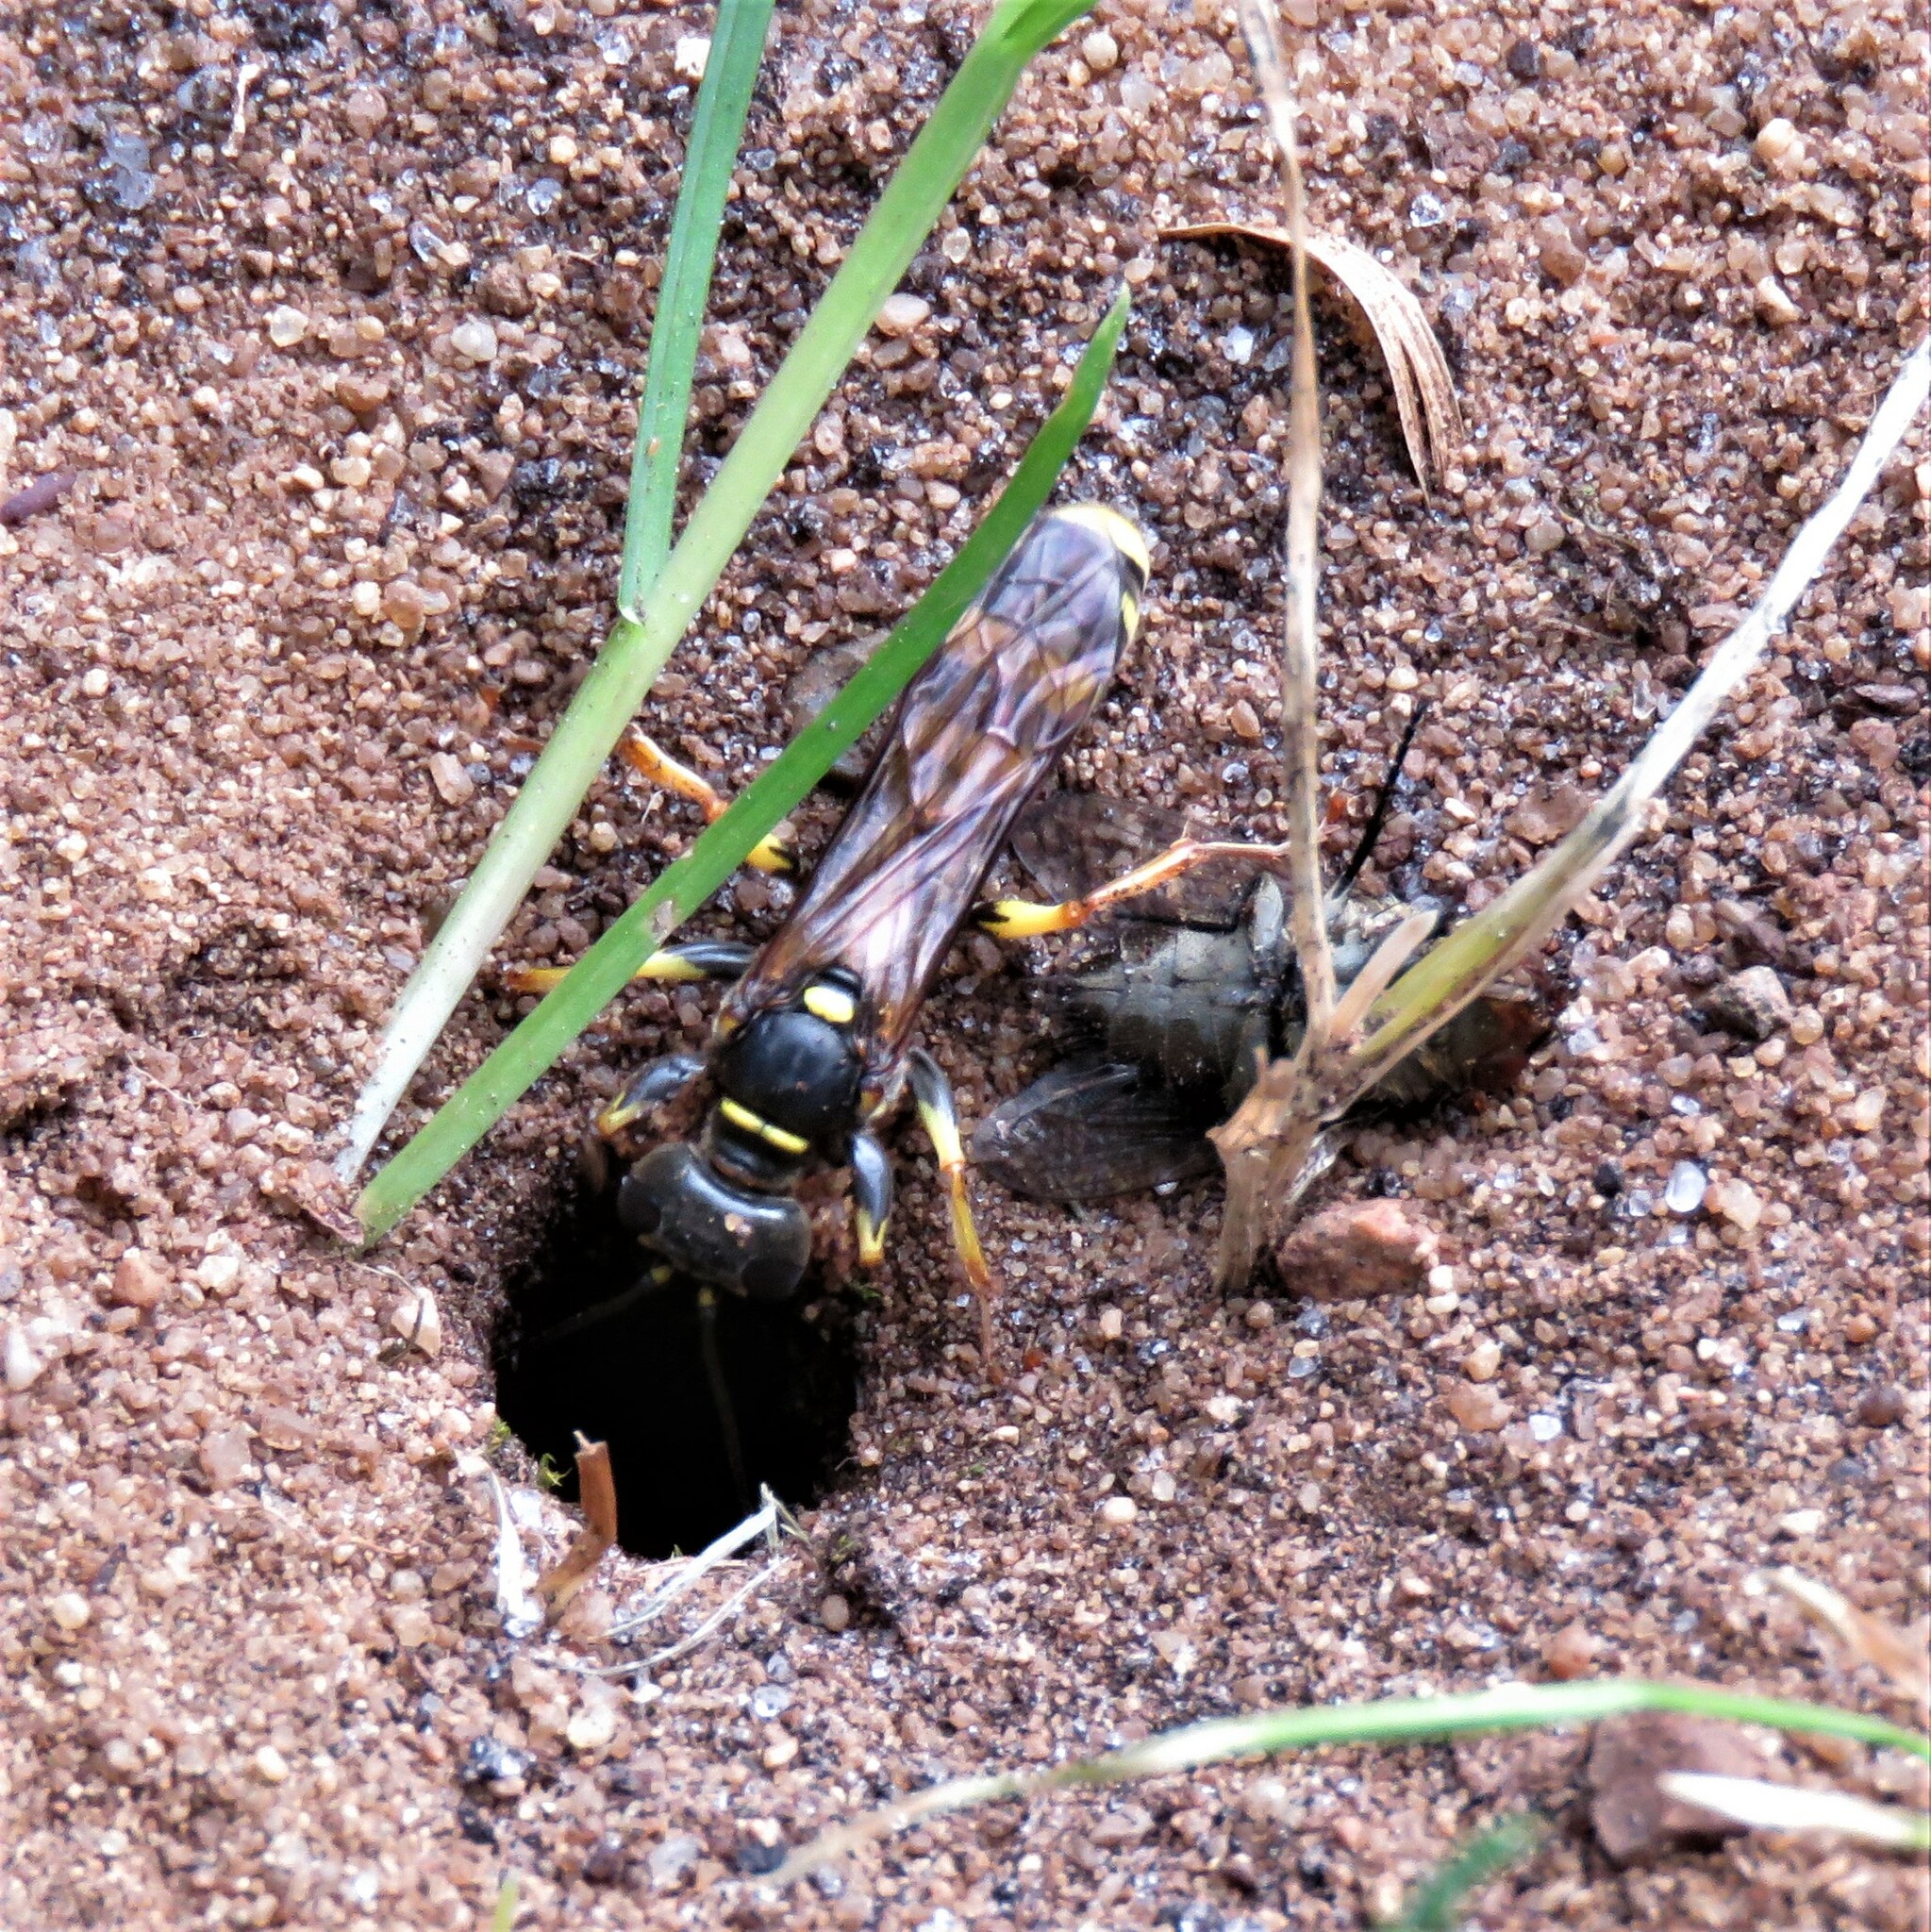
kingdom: Animalia
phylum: Arthropoda
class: Insecta
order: Hymenoptera
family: Crabronidae
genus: Mellinus
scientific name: Mellinus arvensis
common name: Field digger wasp
